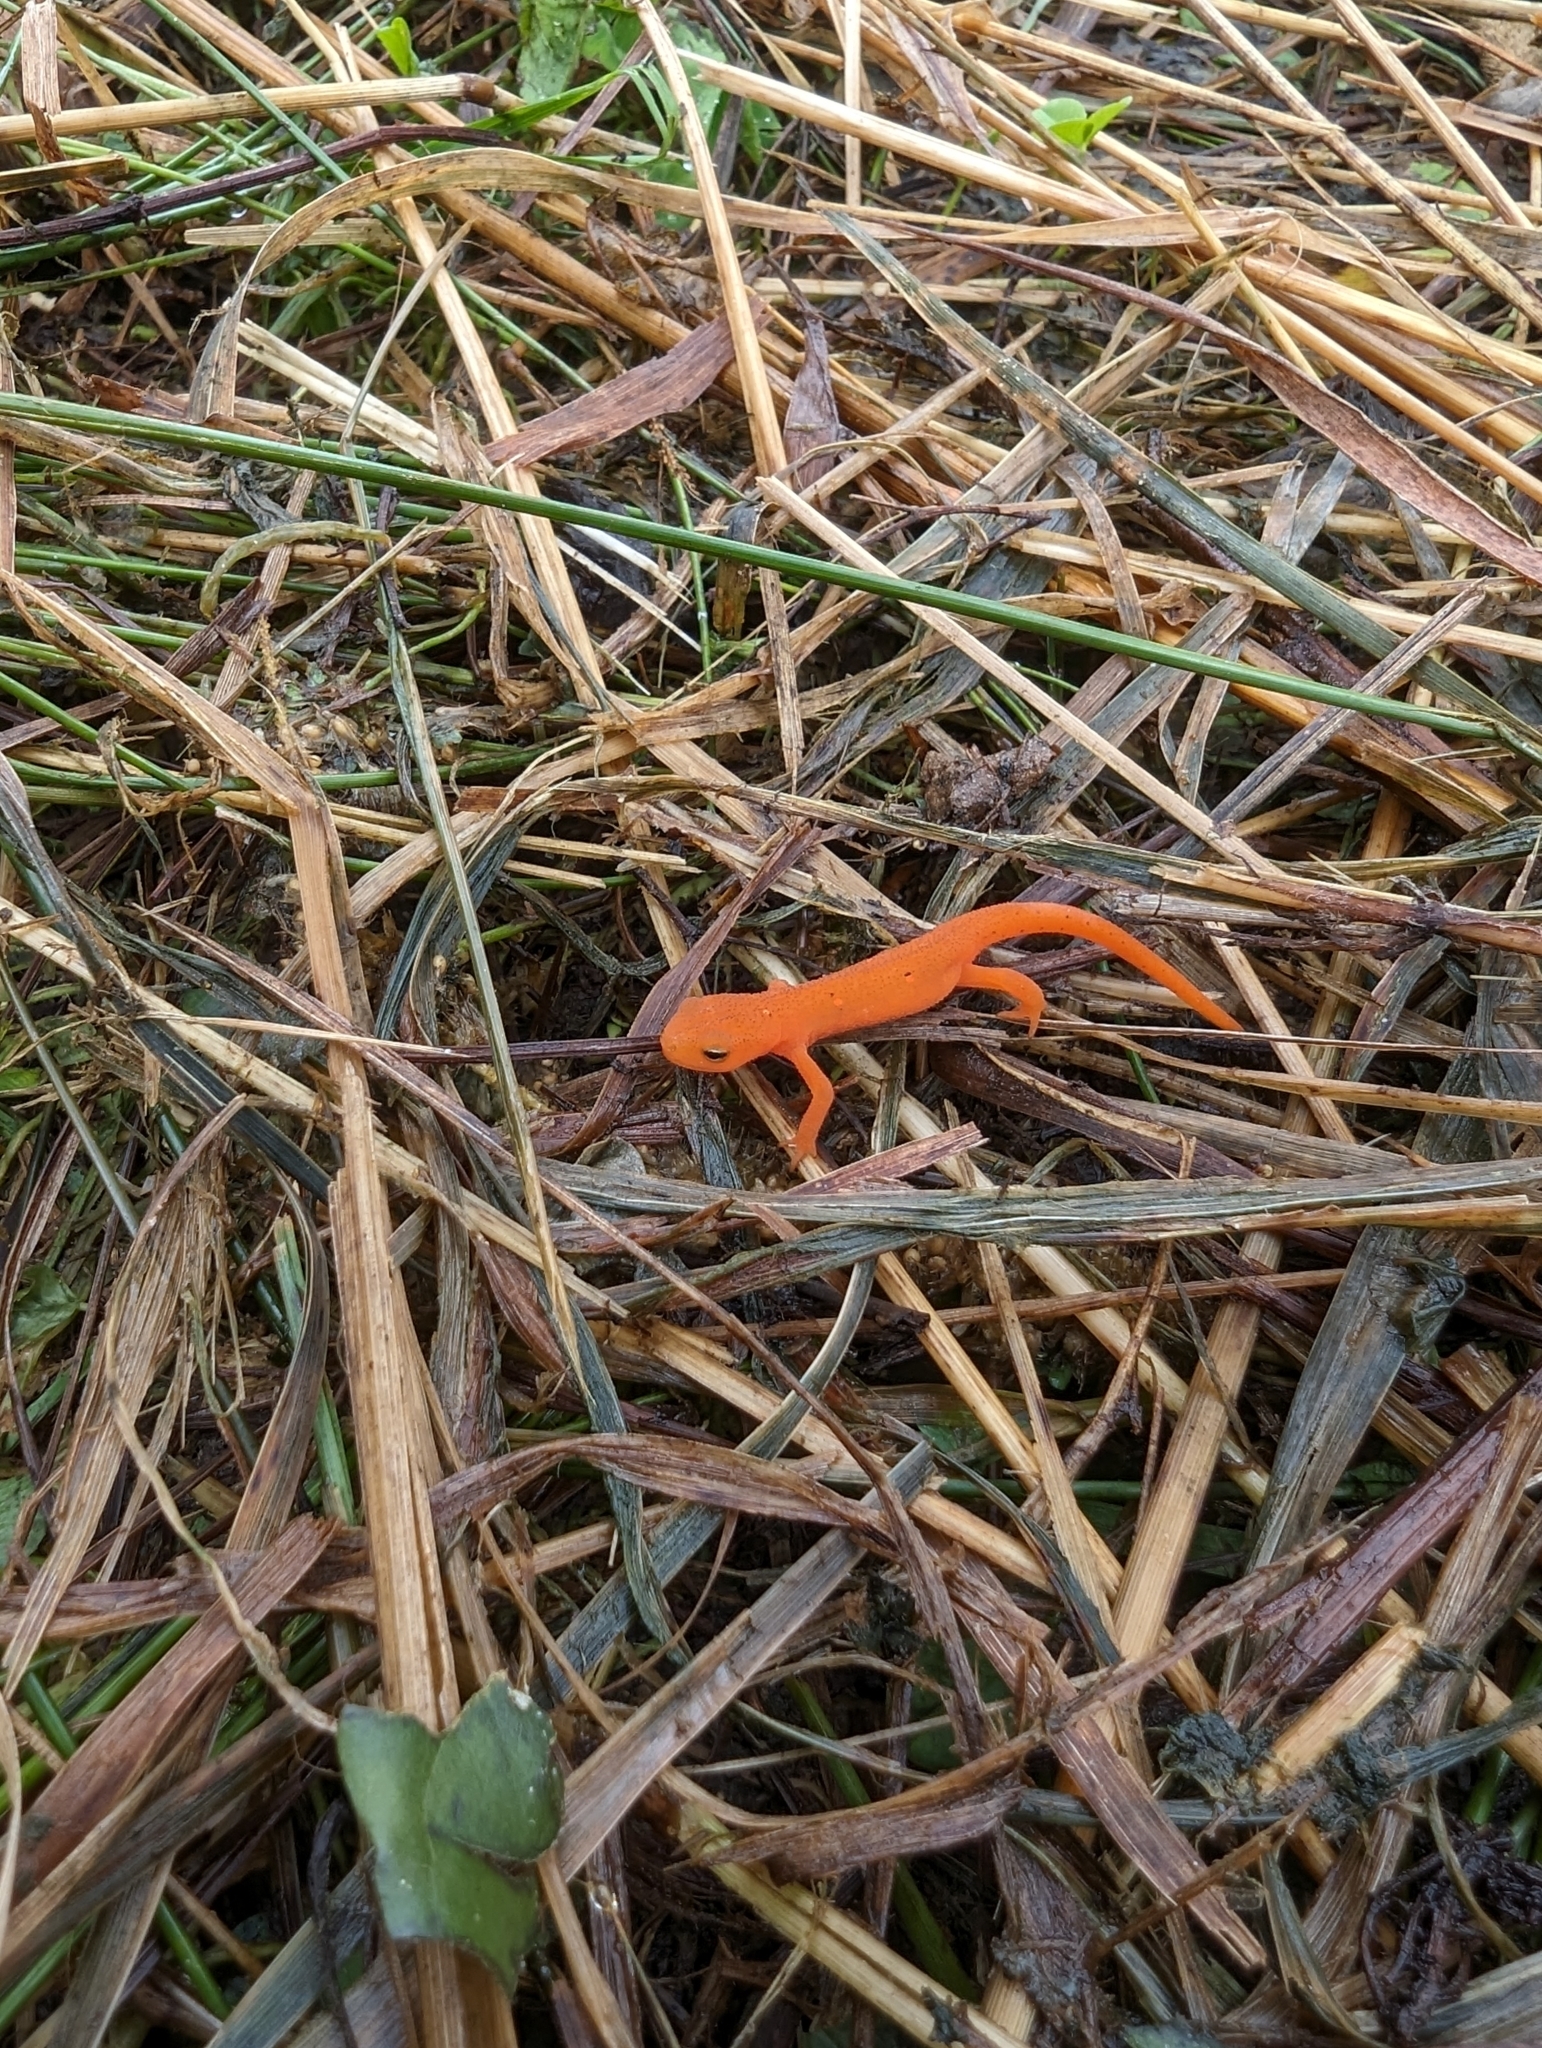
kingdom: Animalia
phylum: Chordata
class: Amphibia
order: Caudata
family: Salamandridae
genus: Notophthalmus
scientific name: Notophthalmus viridescens
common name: Eastern newt
